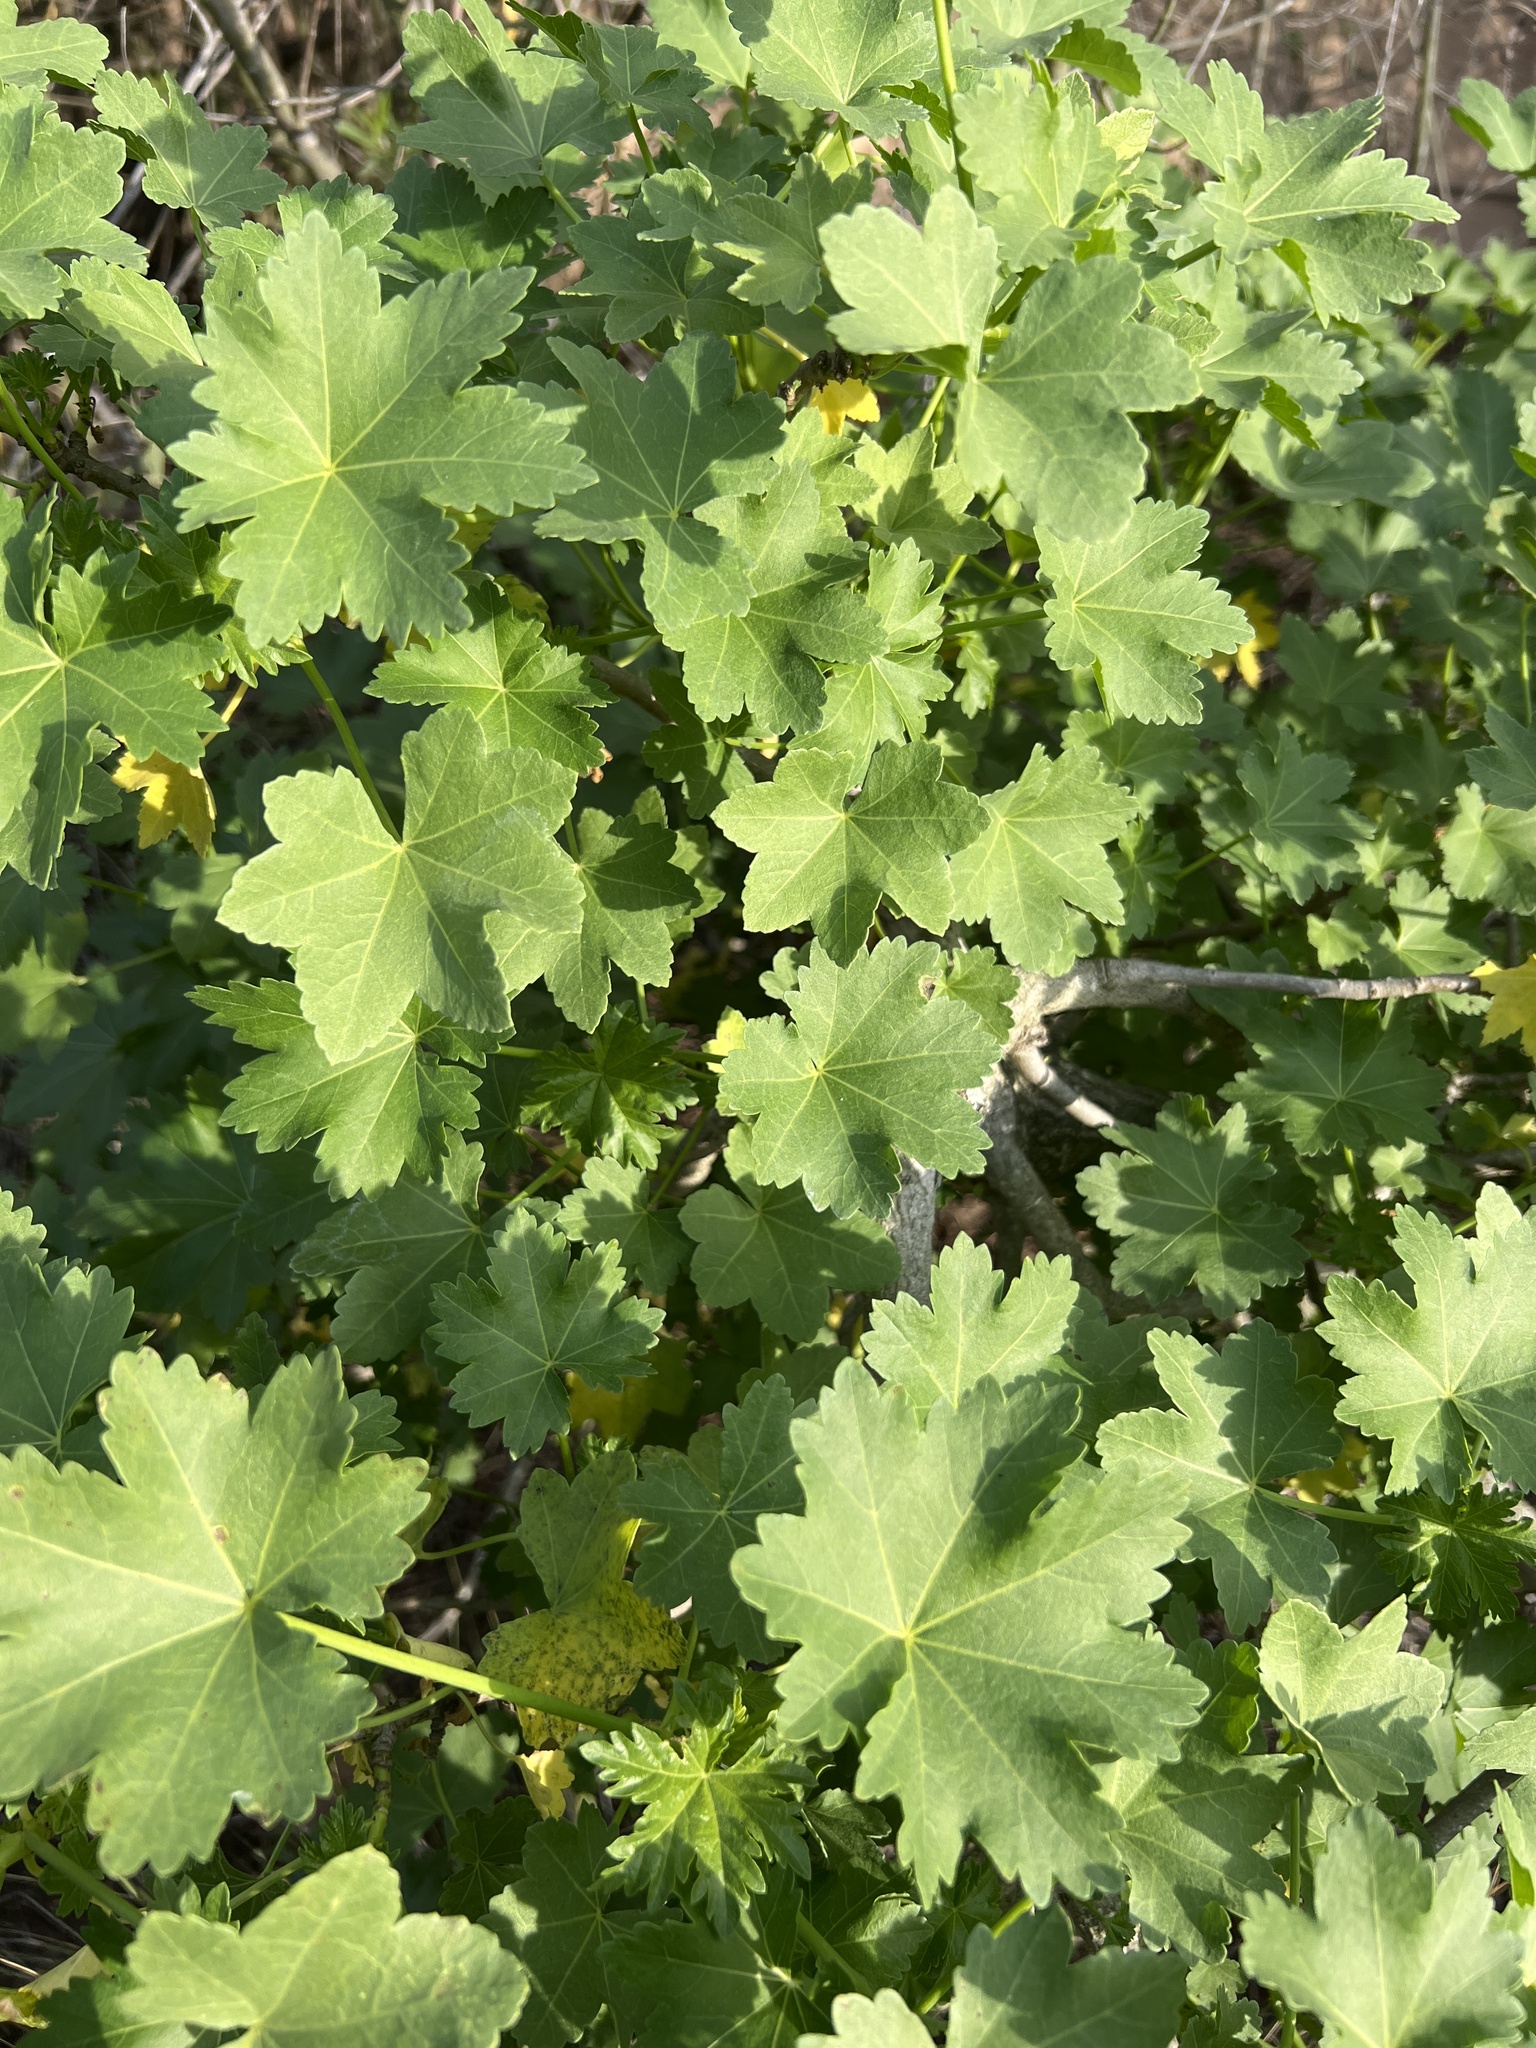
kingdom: Plantae
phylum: Tracheophyta
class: Magnoliopsida
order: Malvales
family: Malvaceae
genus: Malva
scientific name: Malva assurgentiflora
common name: Island mallow
